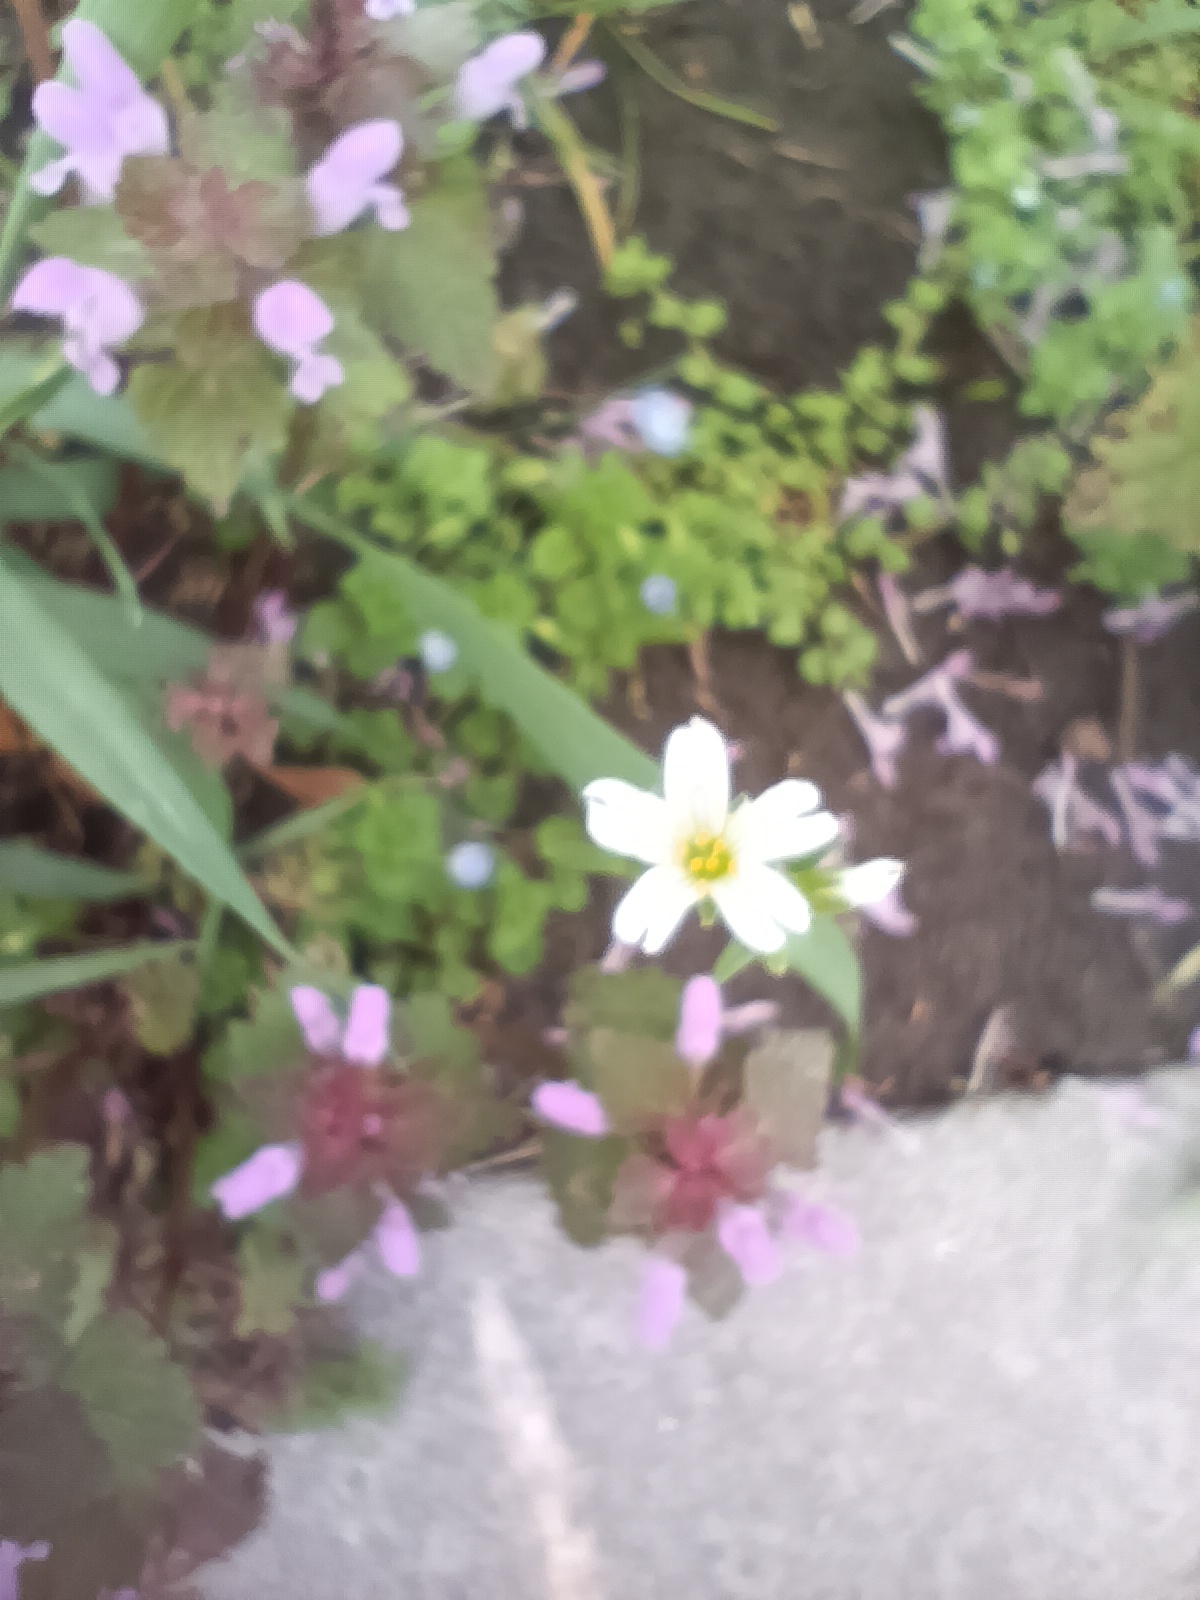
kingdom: Plantae
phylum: Tracheophyta
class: Magnoliopsida
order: Caryophyllales
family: Caryophyllaceae
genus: Dichodon
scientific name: Dichodon viscidum
